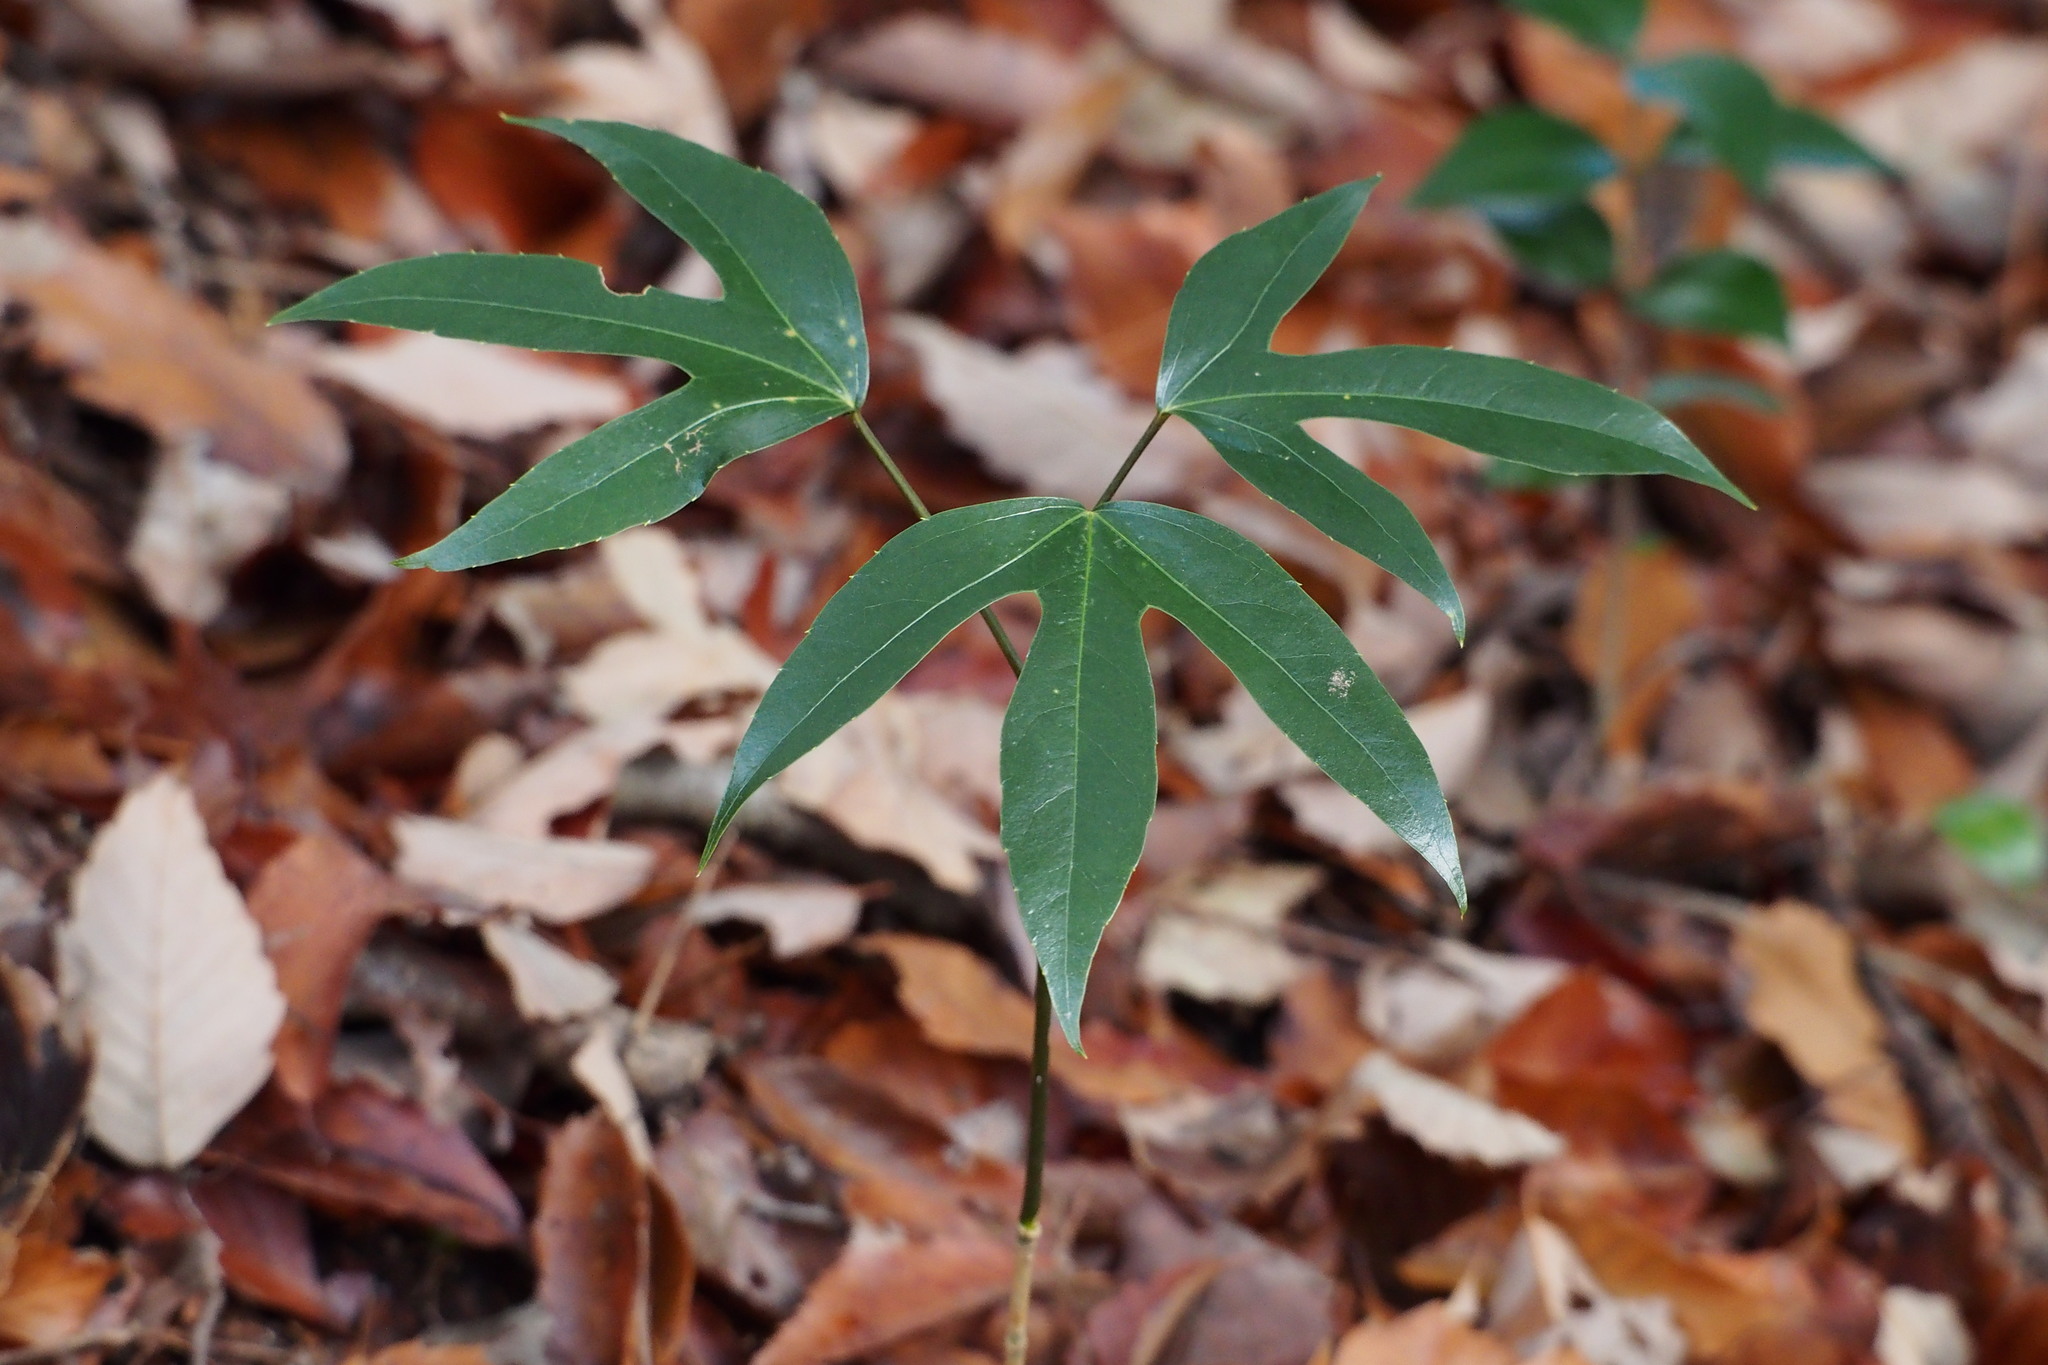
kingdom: Plantae
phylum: Tracheophyta
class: Magnoliopsida
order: Apiales
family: Araliaceae
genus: Dendropanax
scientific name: Dendropanax trifidus
